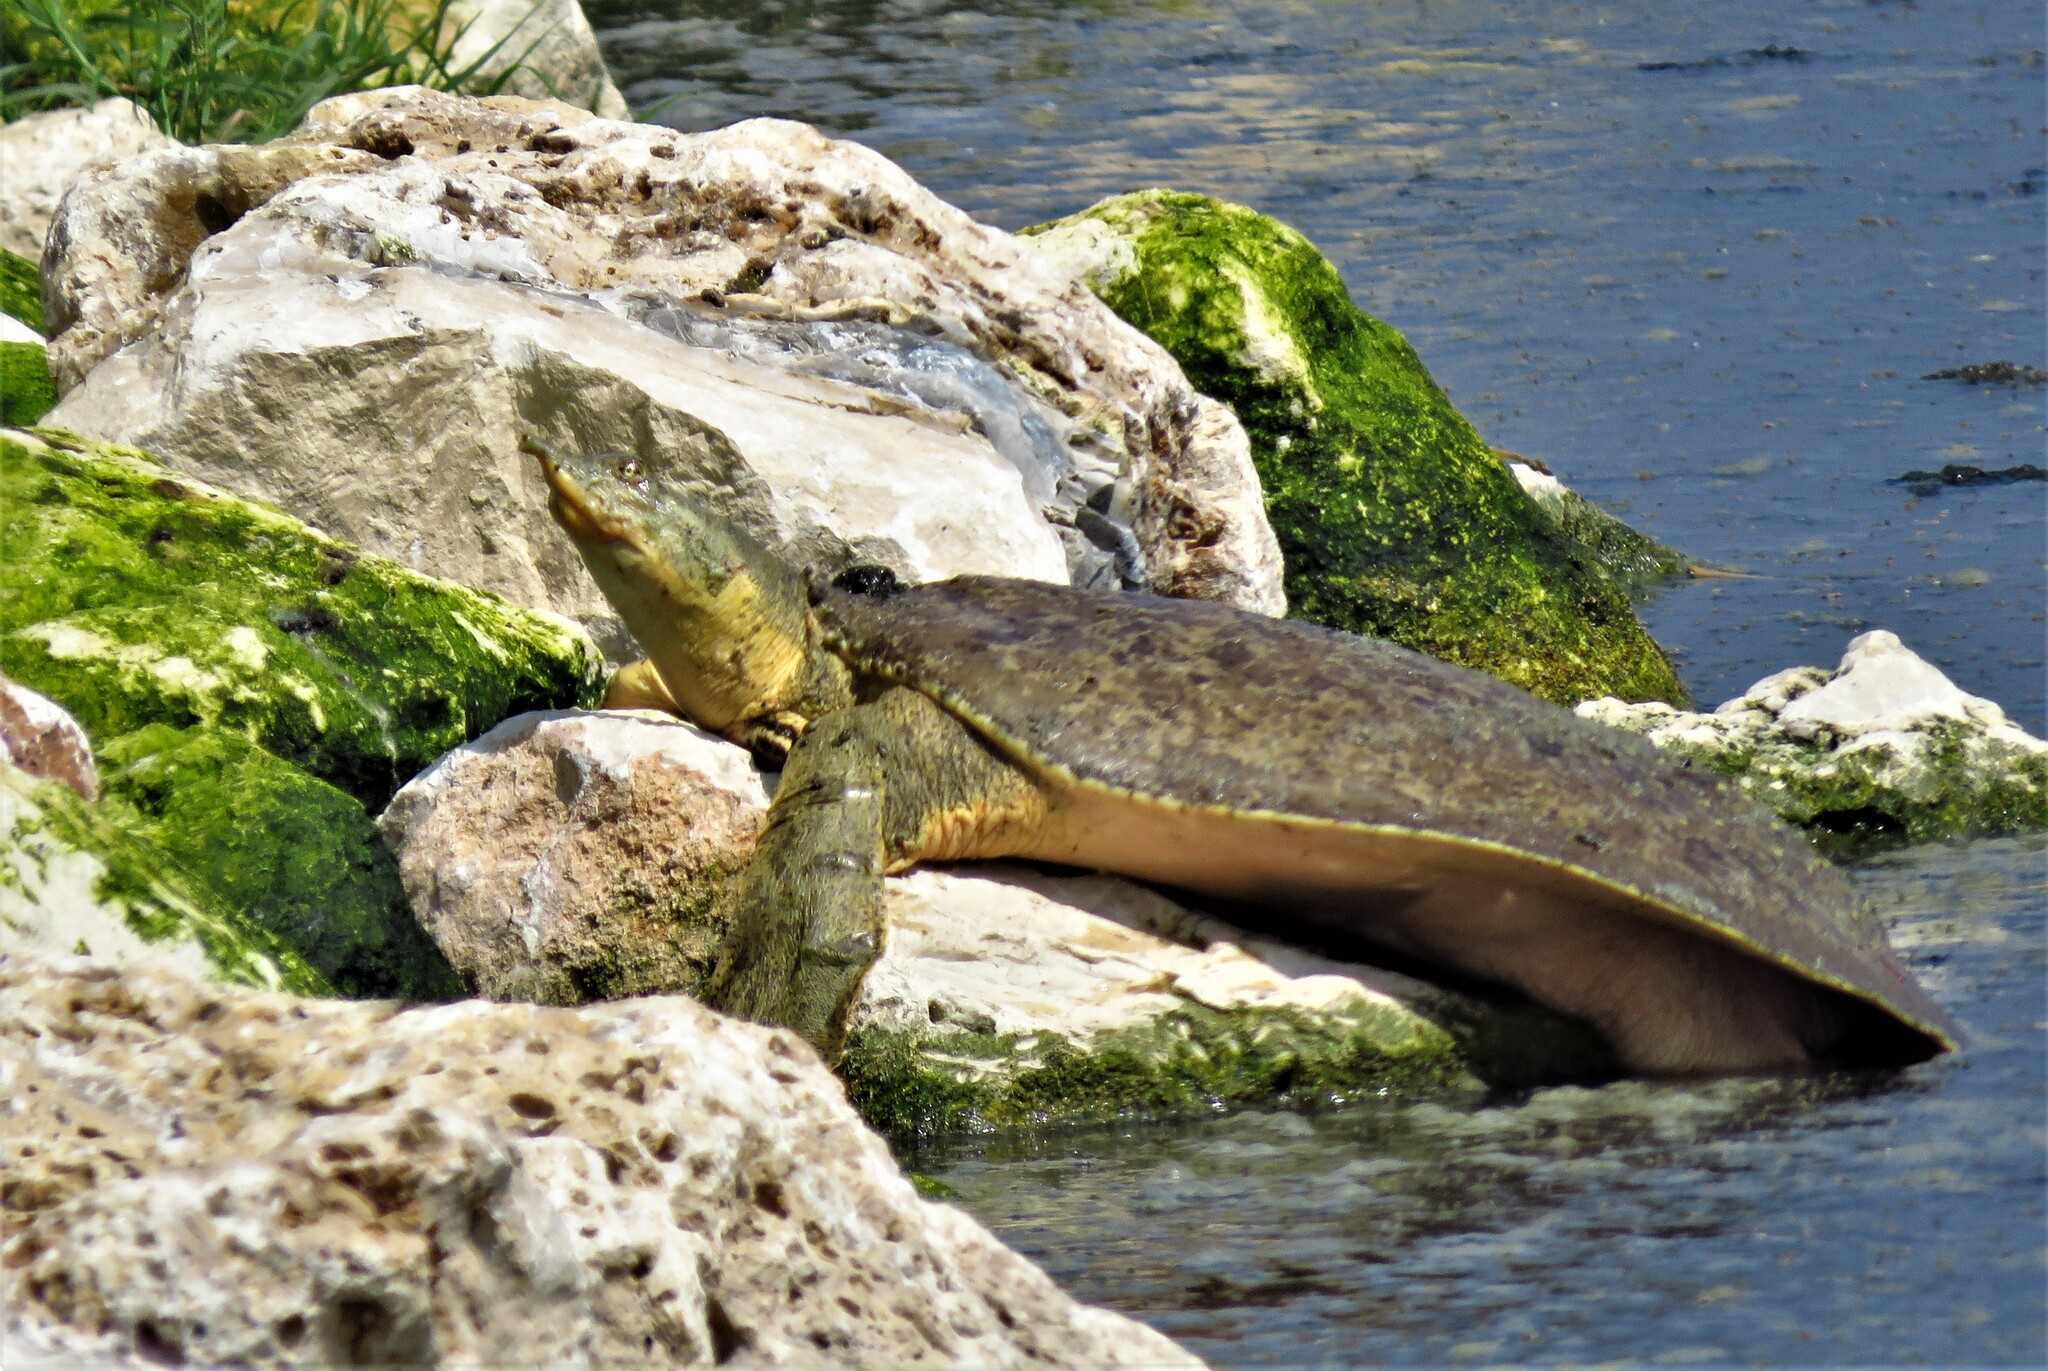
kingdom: Animalia
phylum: Chordata
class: Testudines
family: Trionychidae
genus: Apalone
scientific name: Apalone spinifera
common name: Spiny softshell turtle
